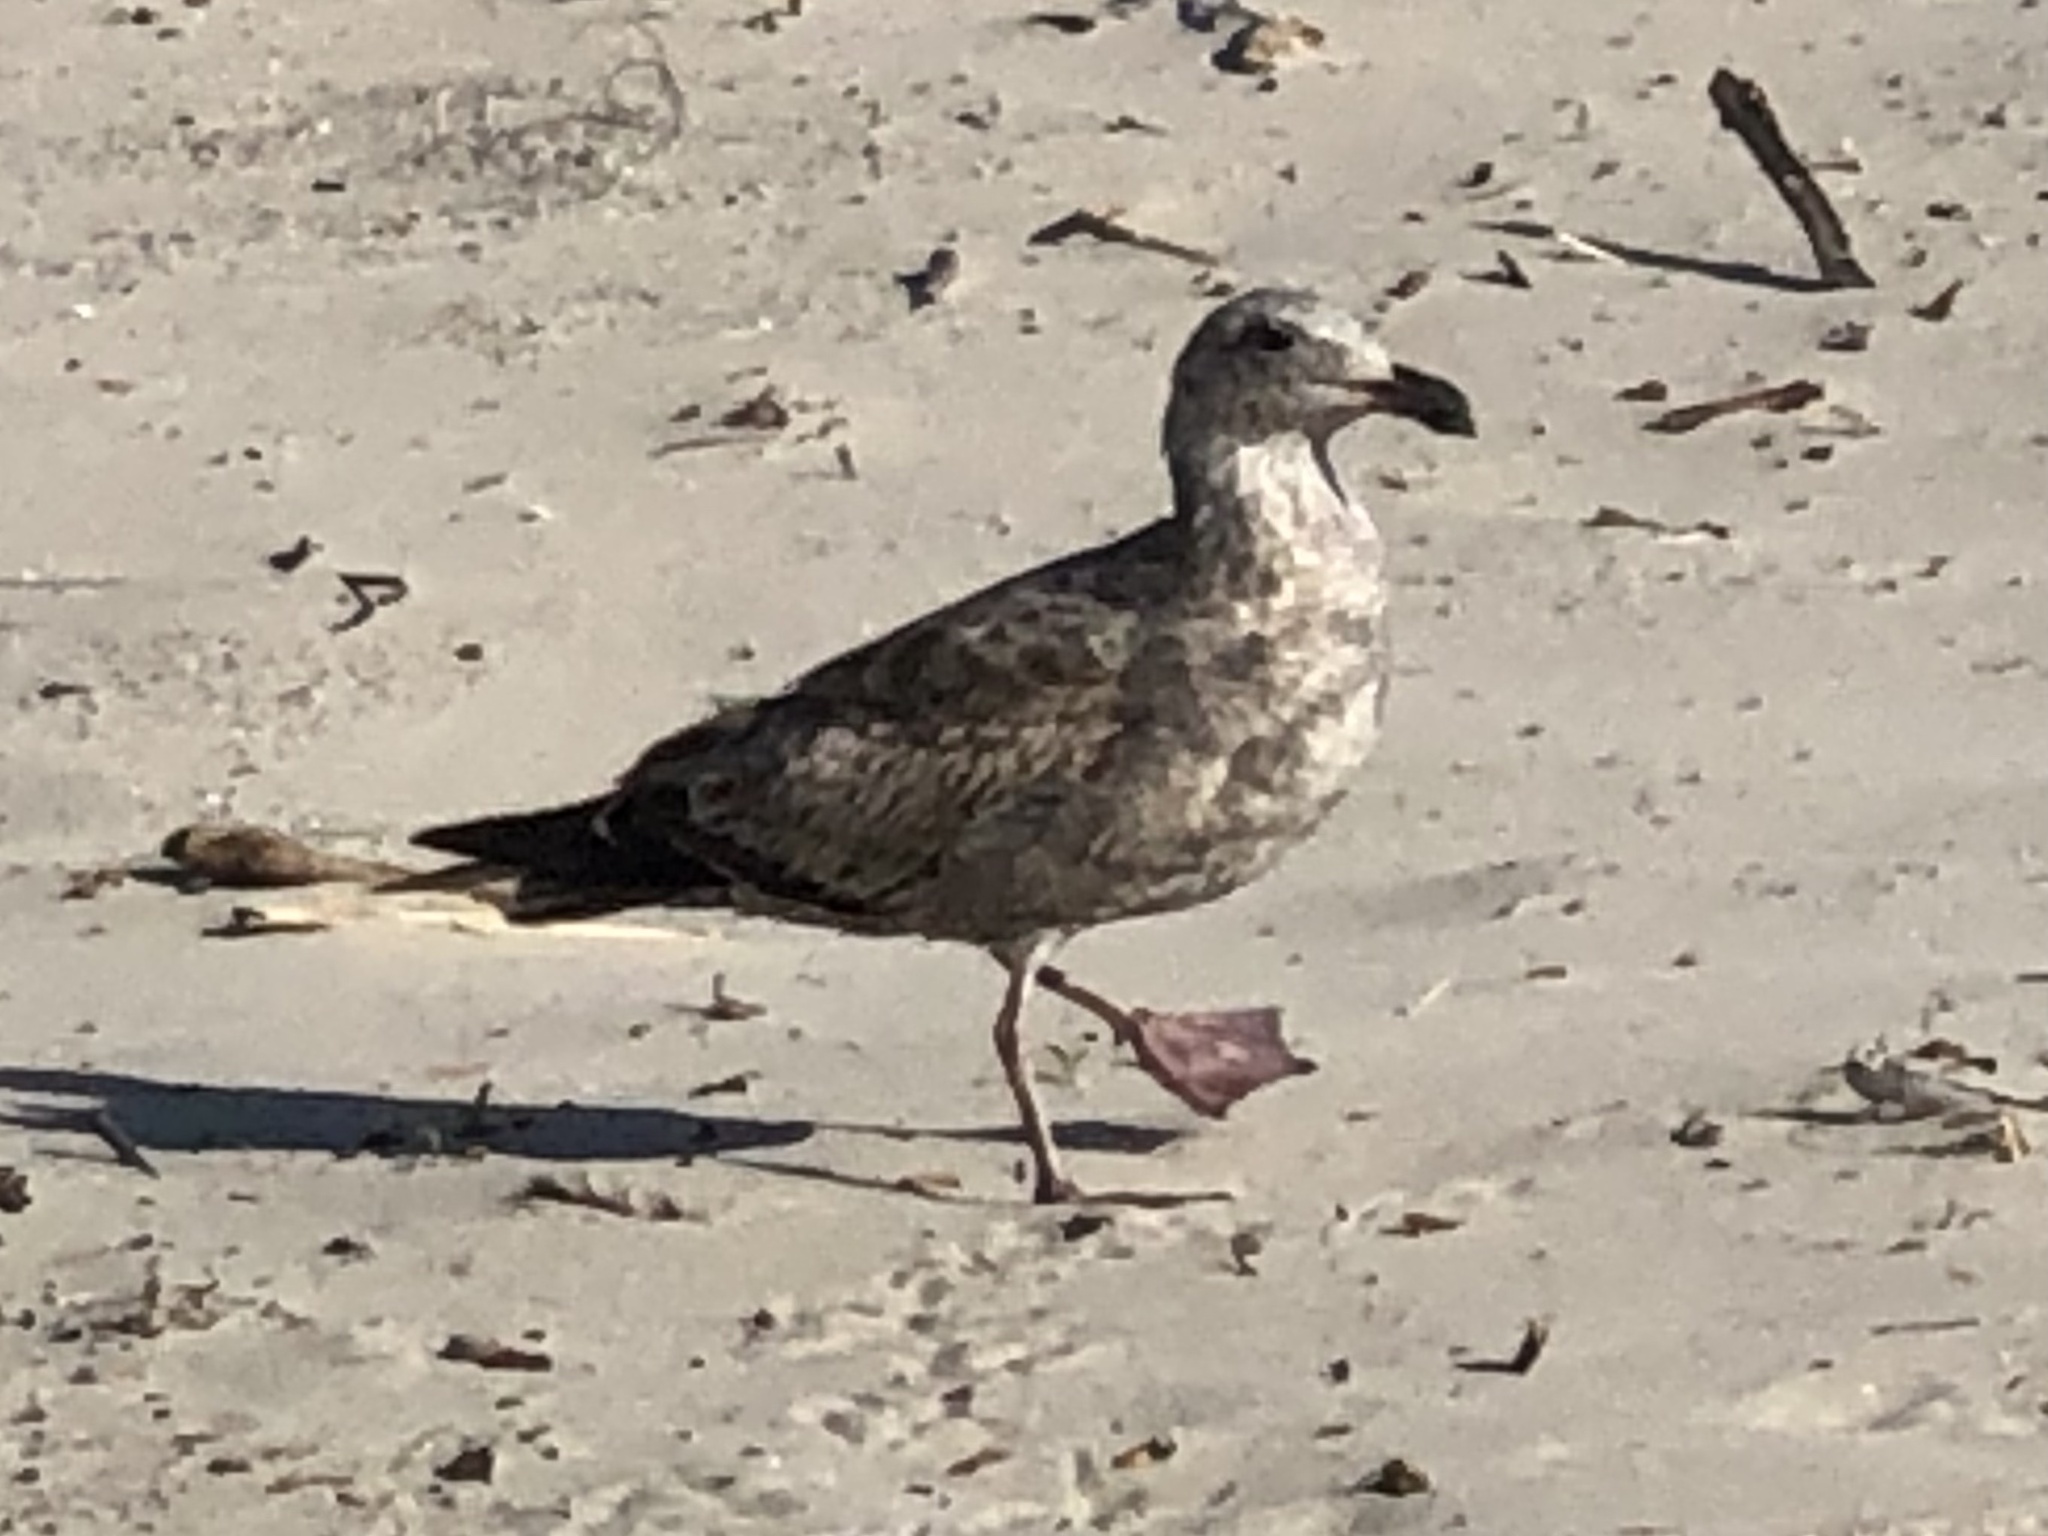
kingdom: Animalia
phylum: Chordata
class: Aves
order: Charadriiformes
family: Laridae
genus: Larus
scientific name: Larus occidentalis
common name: Western gull
